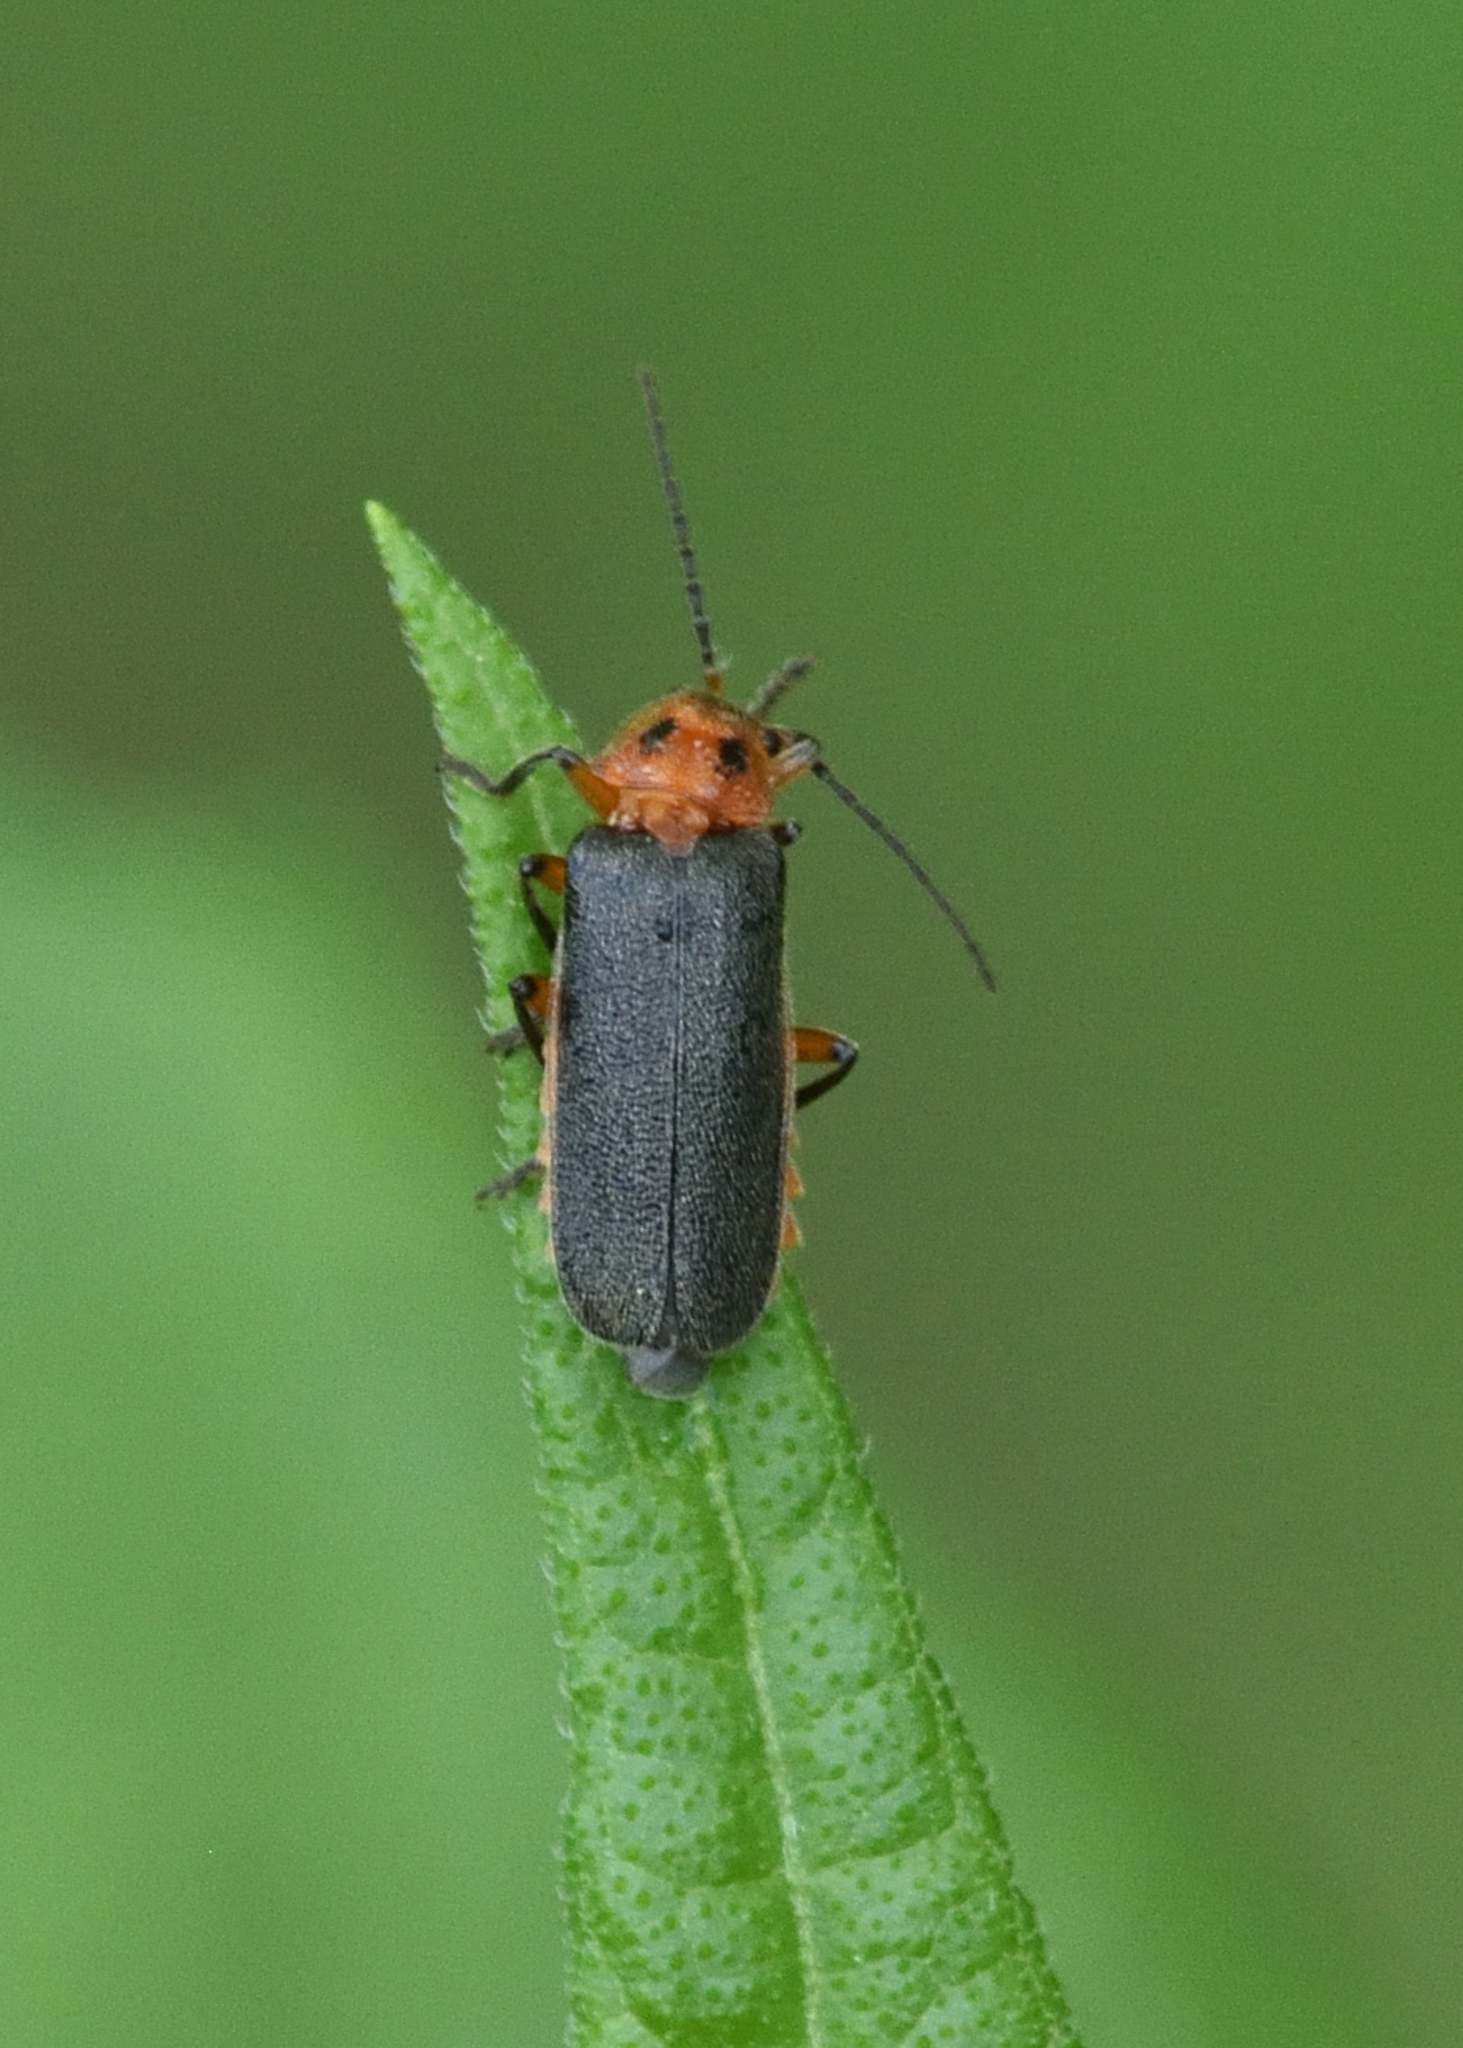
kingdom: Animalia
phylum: Arthropoda
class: Insecta
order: Coleoptera
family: Cantharidae
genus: Atalantycha
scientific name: Atalantycha bilineata
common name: Two-lined leatherwing
